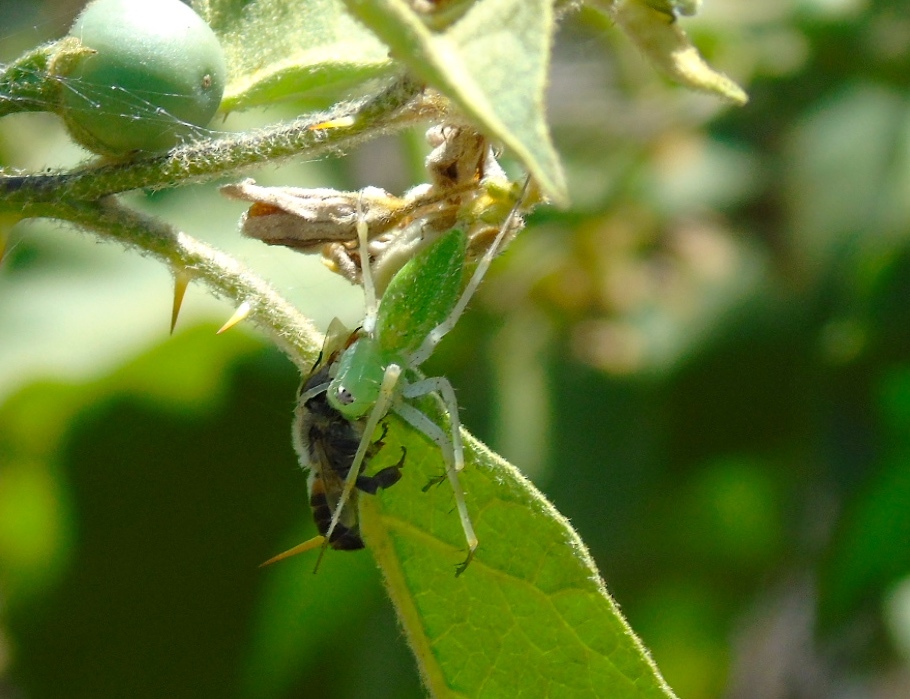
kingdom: Animalia
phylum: Arthropoda
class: Arachnida
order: Araneae
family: Oxyopidae
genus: Peucetia
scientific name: Peucetia
